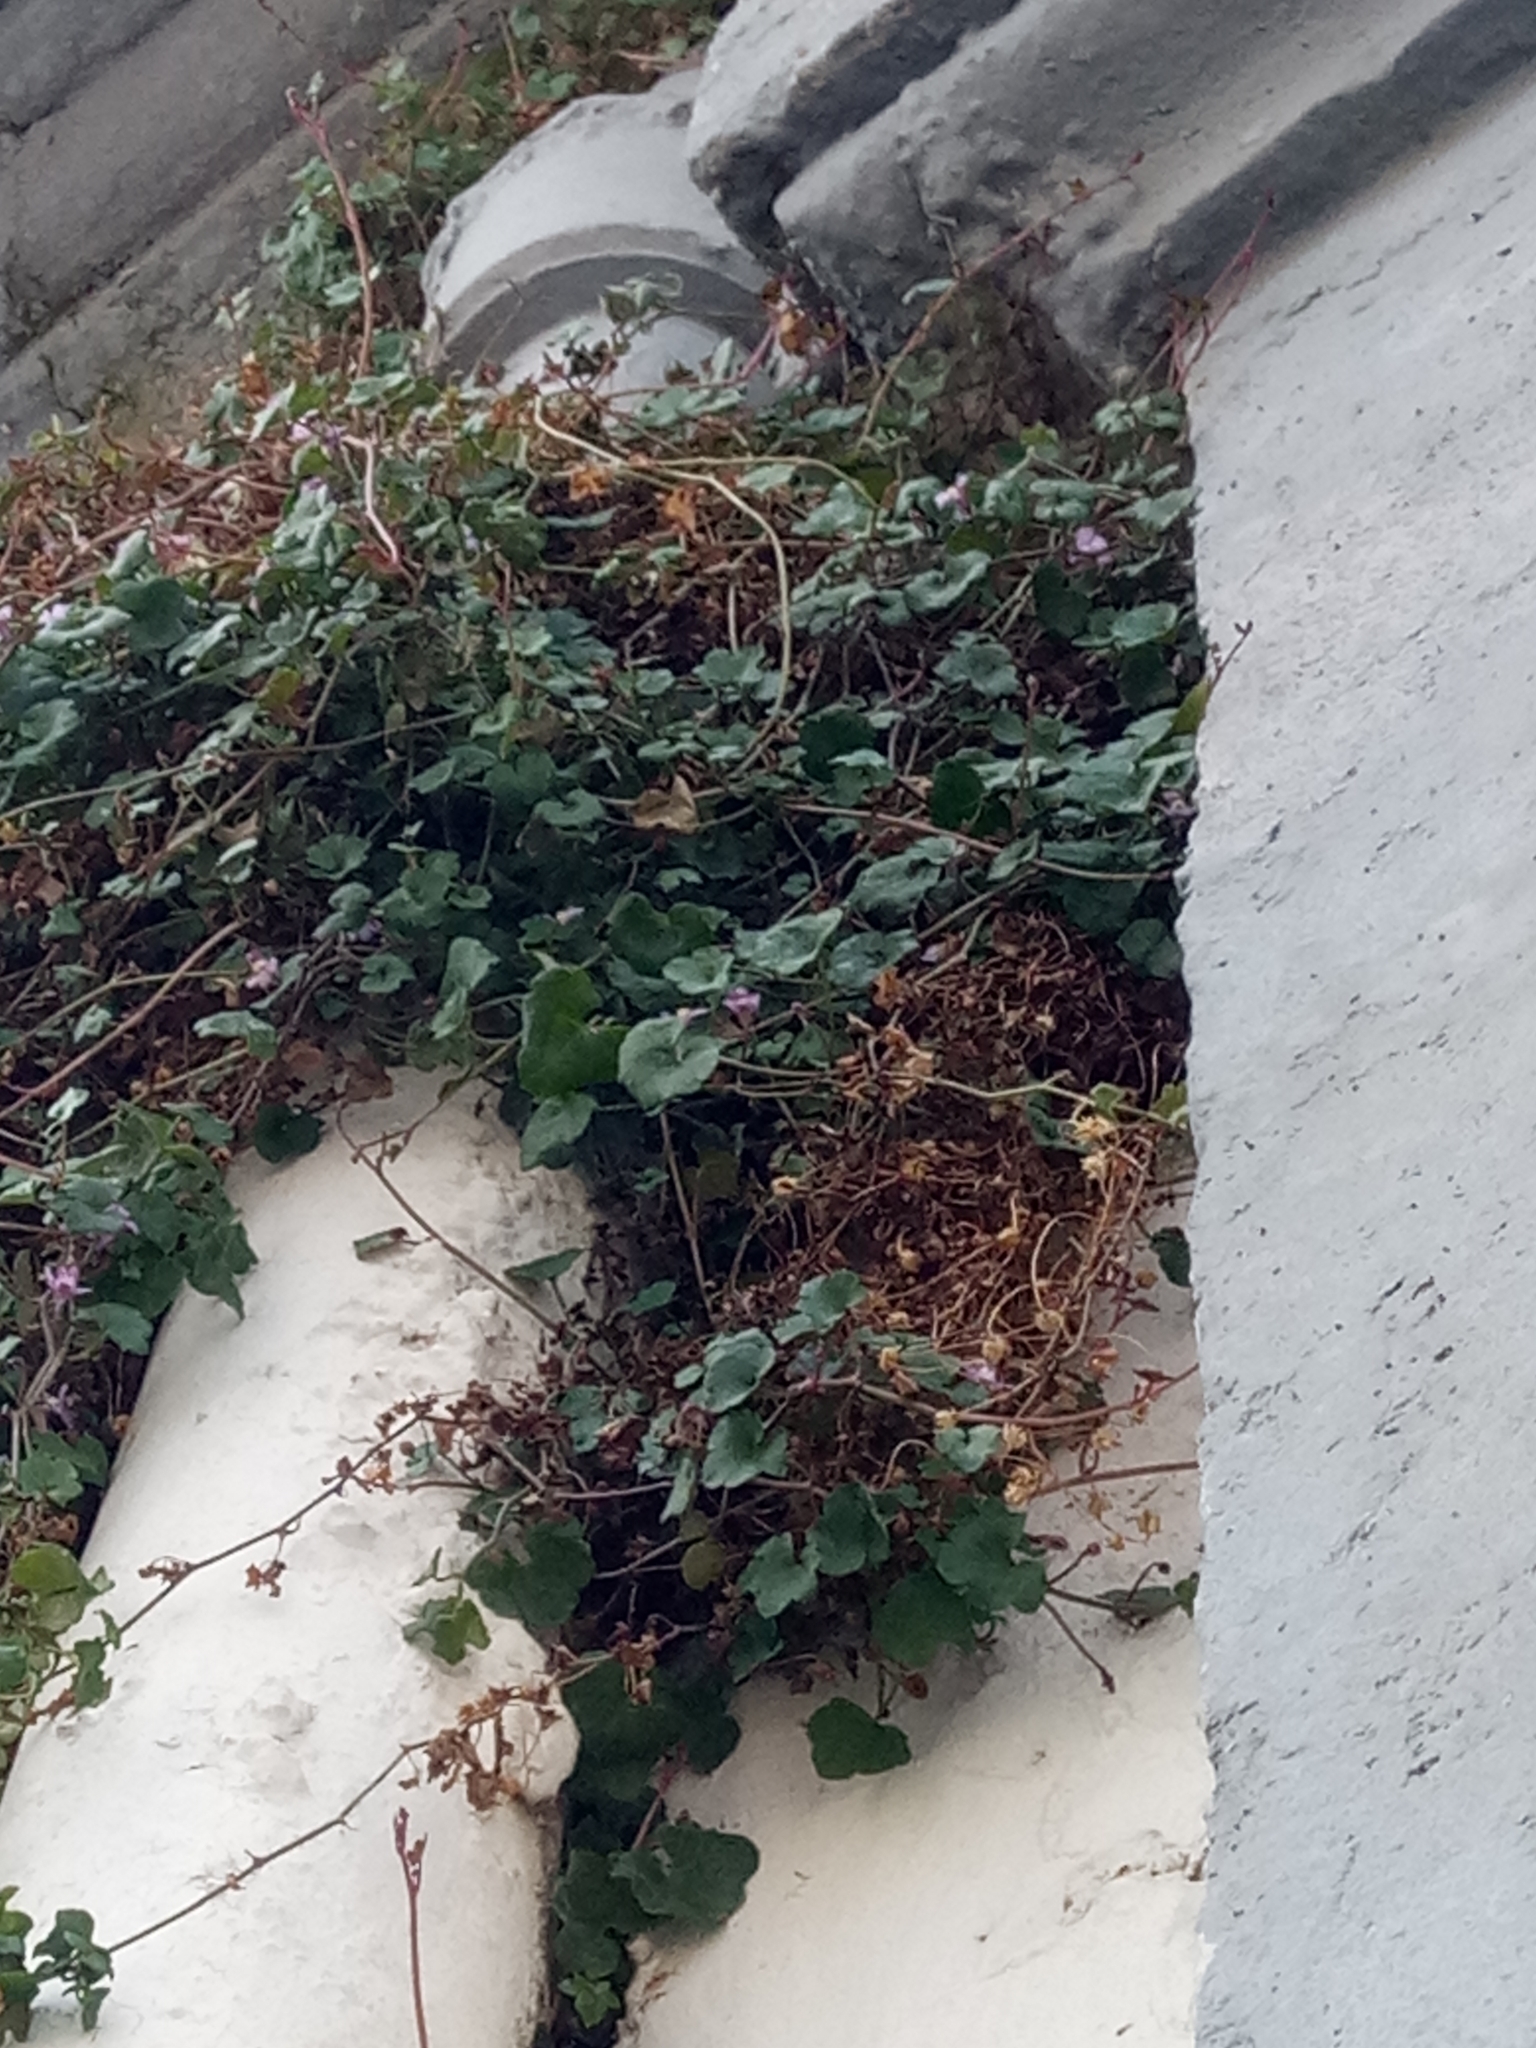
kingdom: Plantae
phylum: Tracheophyta
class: Magnoliopsida
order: Lamiales
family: Plantaginaceae
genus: Cymbalaria
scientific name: Cymbalaria muralis
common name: Ivy-leaved toadflax
